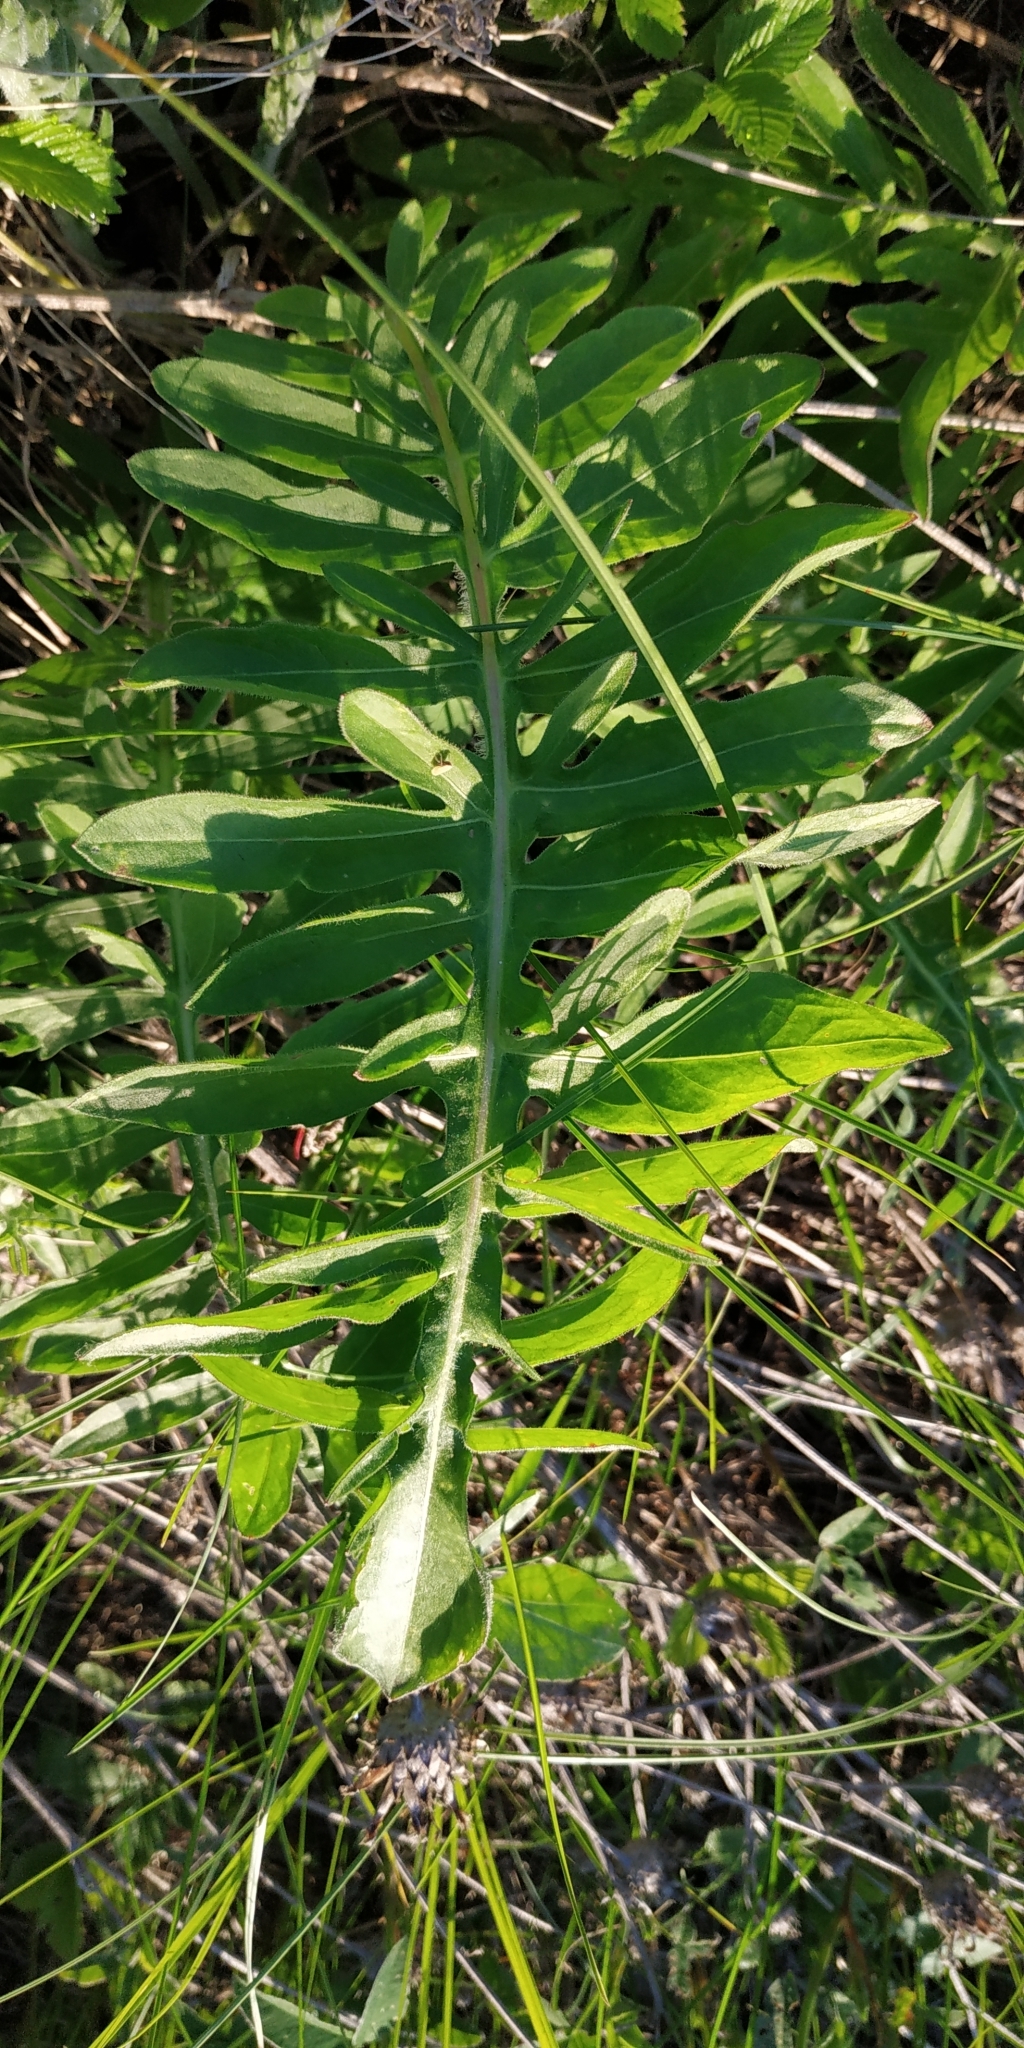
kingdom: Plantae
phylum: Tracheophyta
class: Magnoliopsida
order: Asterales
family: Asteraceae
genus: Centaurea
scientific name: Centaurea scabiosa
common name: Greater knapweed
